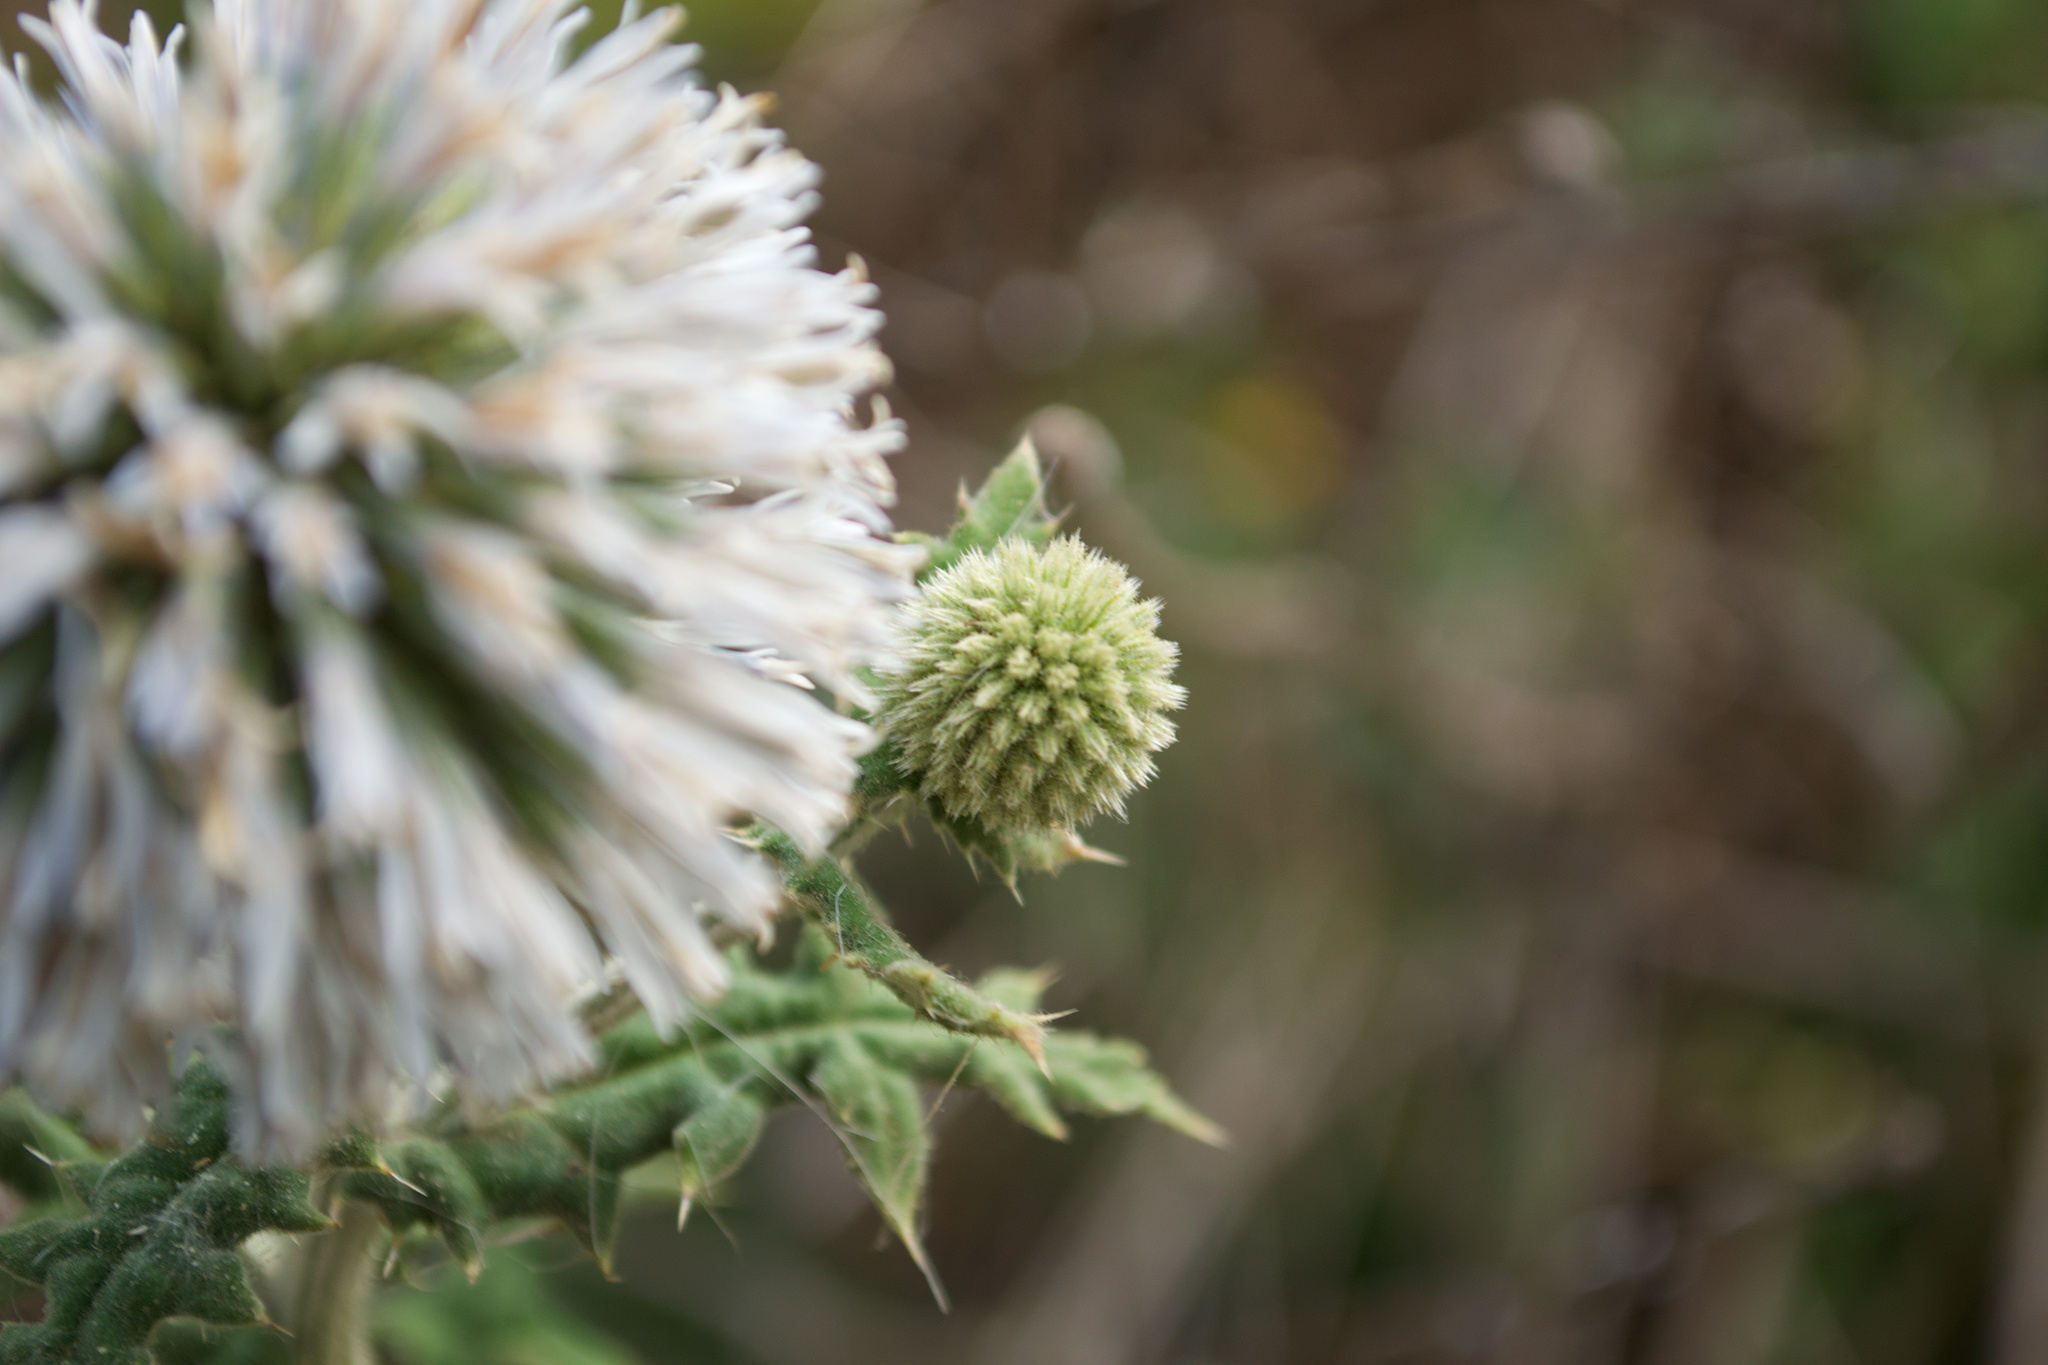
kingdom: Plantae
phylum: Tracheophyta
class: Magnoliopsida
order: Asterales
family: Asteraceae
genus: Echinops
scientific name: Echinops sphaerocephalus
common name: Glandular globe-thistle
